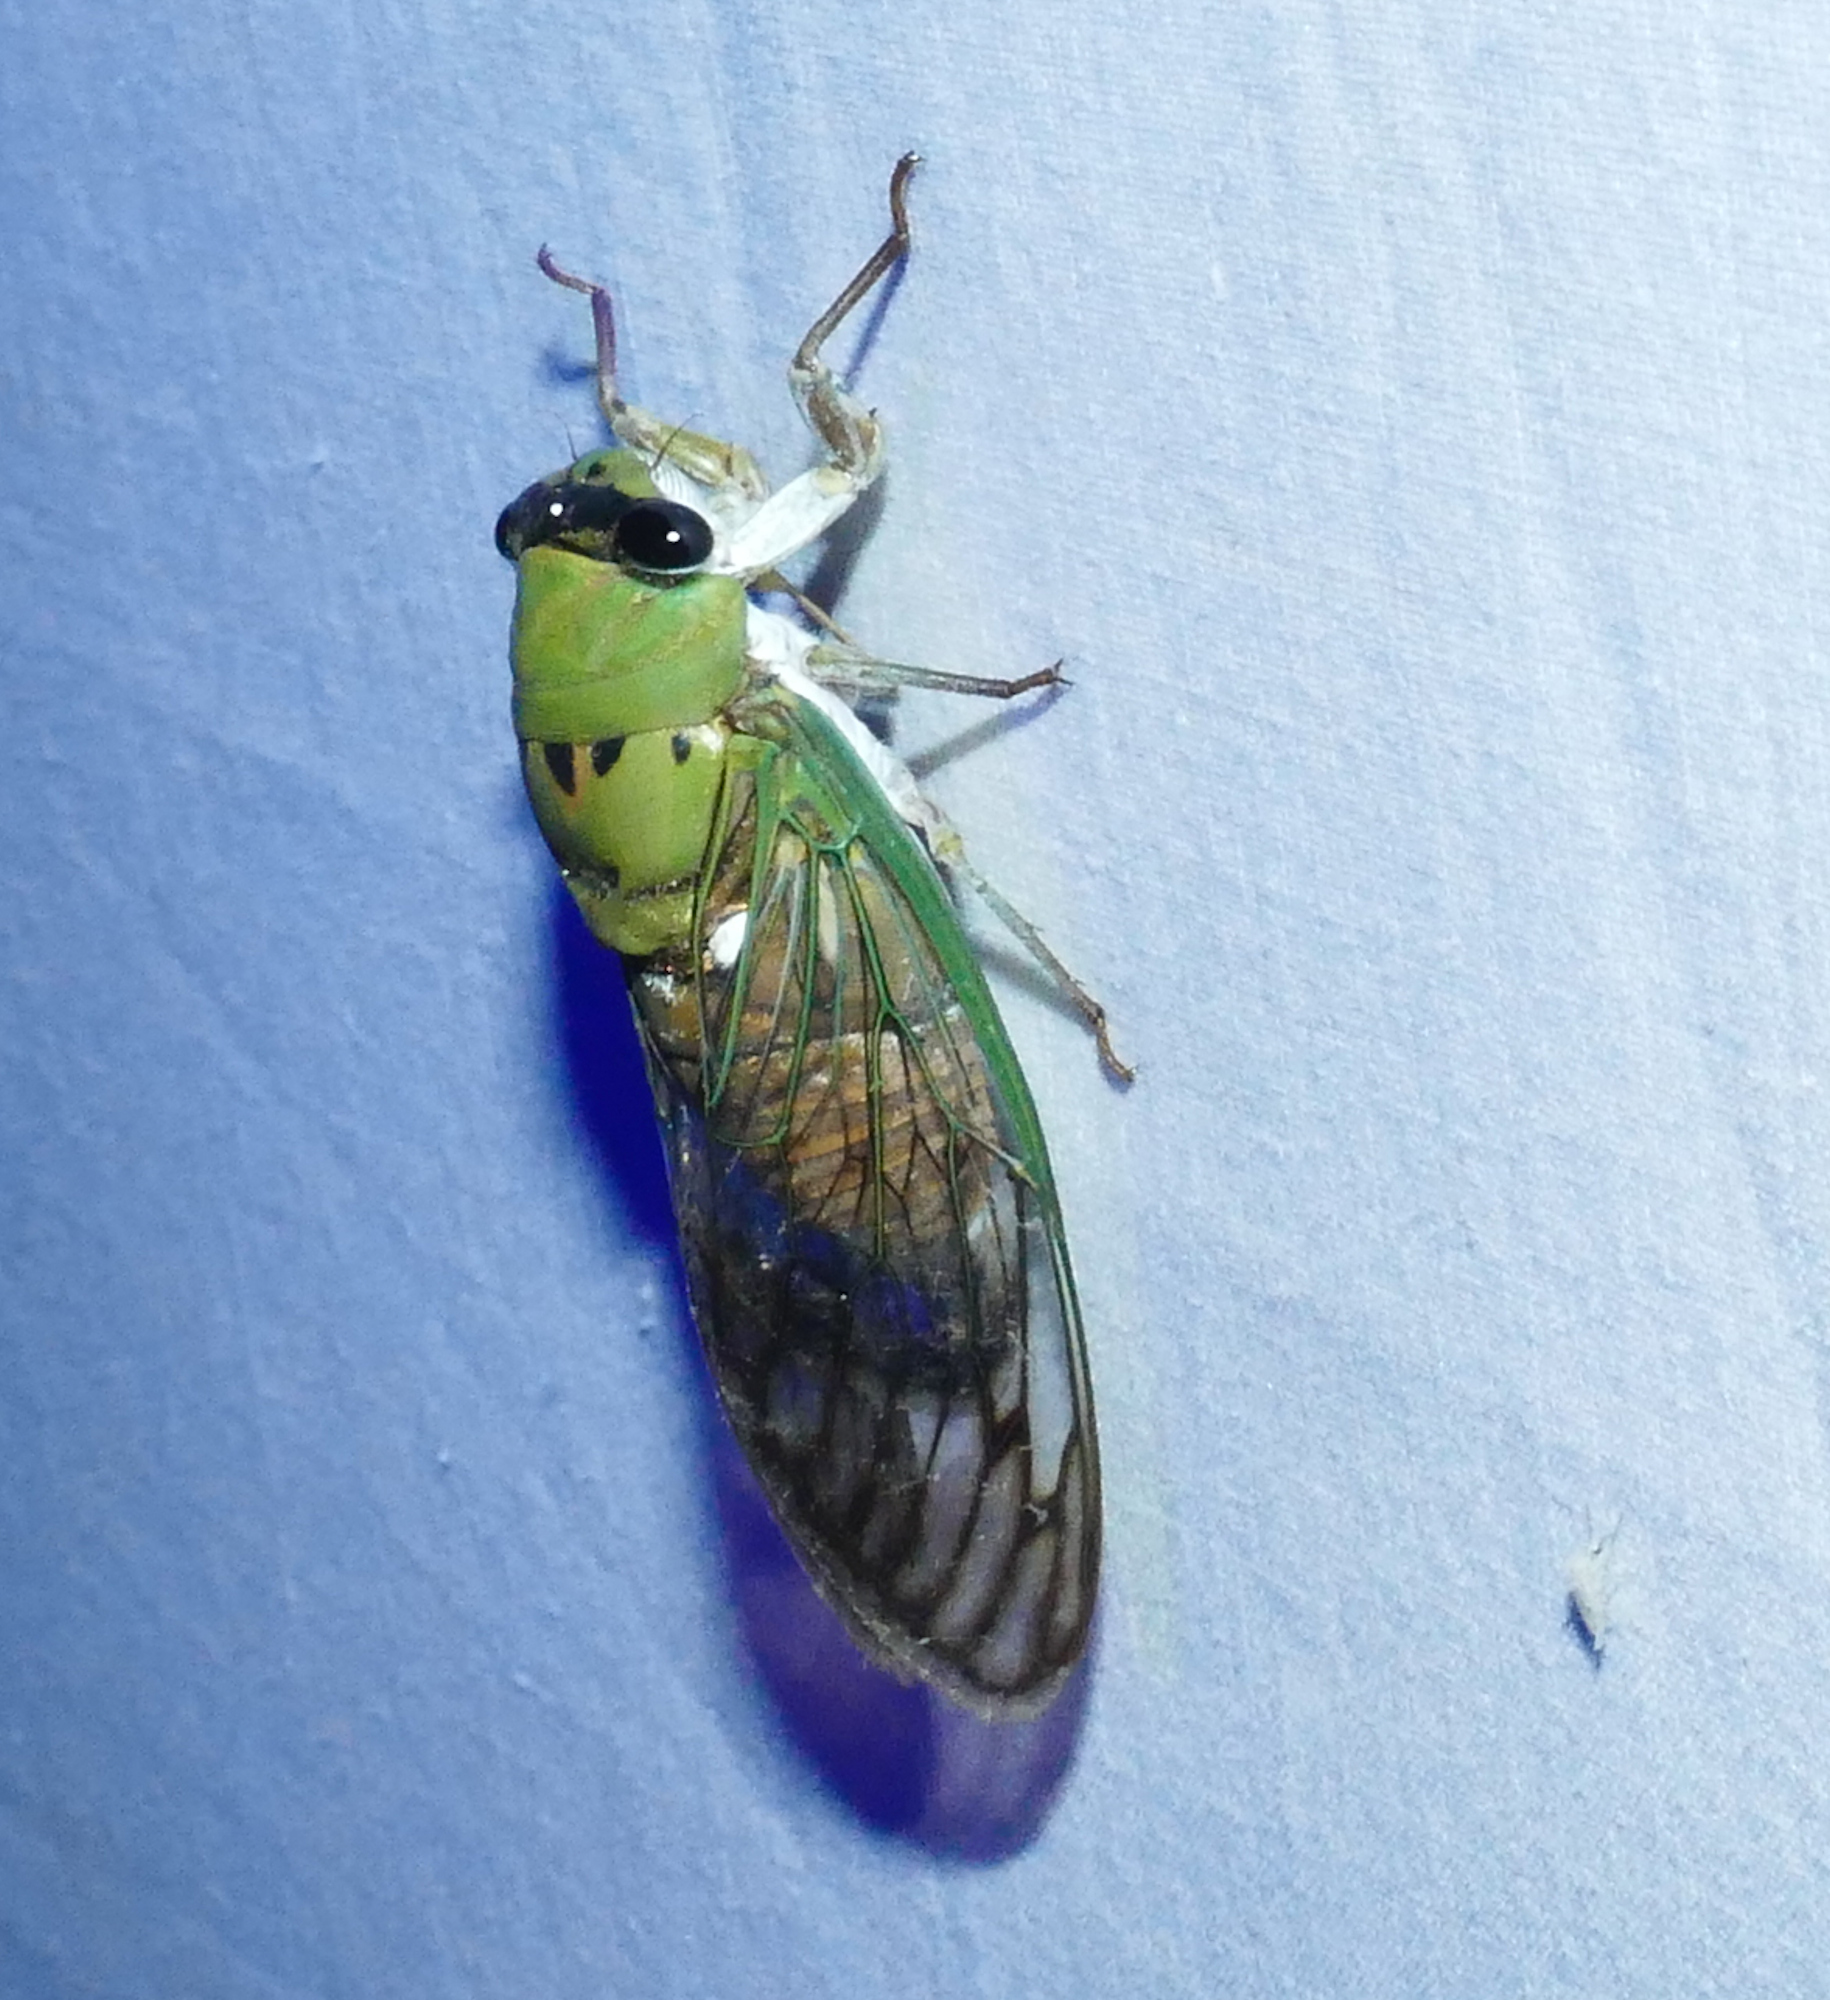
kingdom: Animalia
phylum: Arthropoda
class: Insecta
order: Hemiptera
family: Cicadidae
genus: Neotibicen
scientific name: Neotibicen superbus
